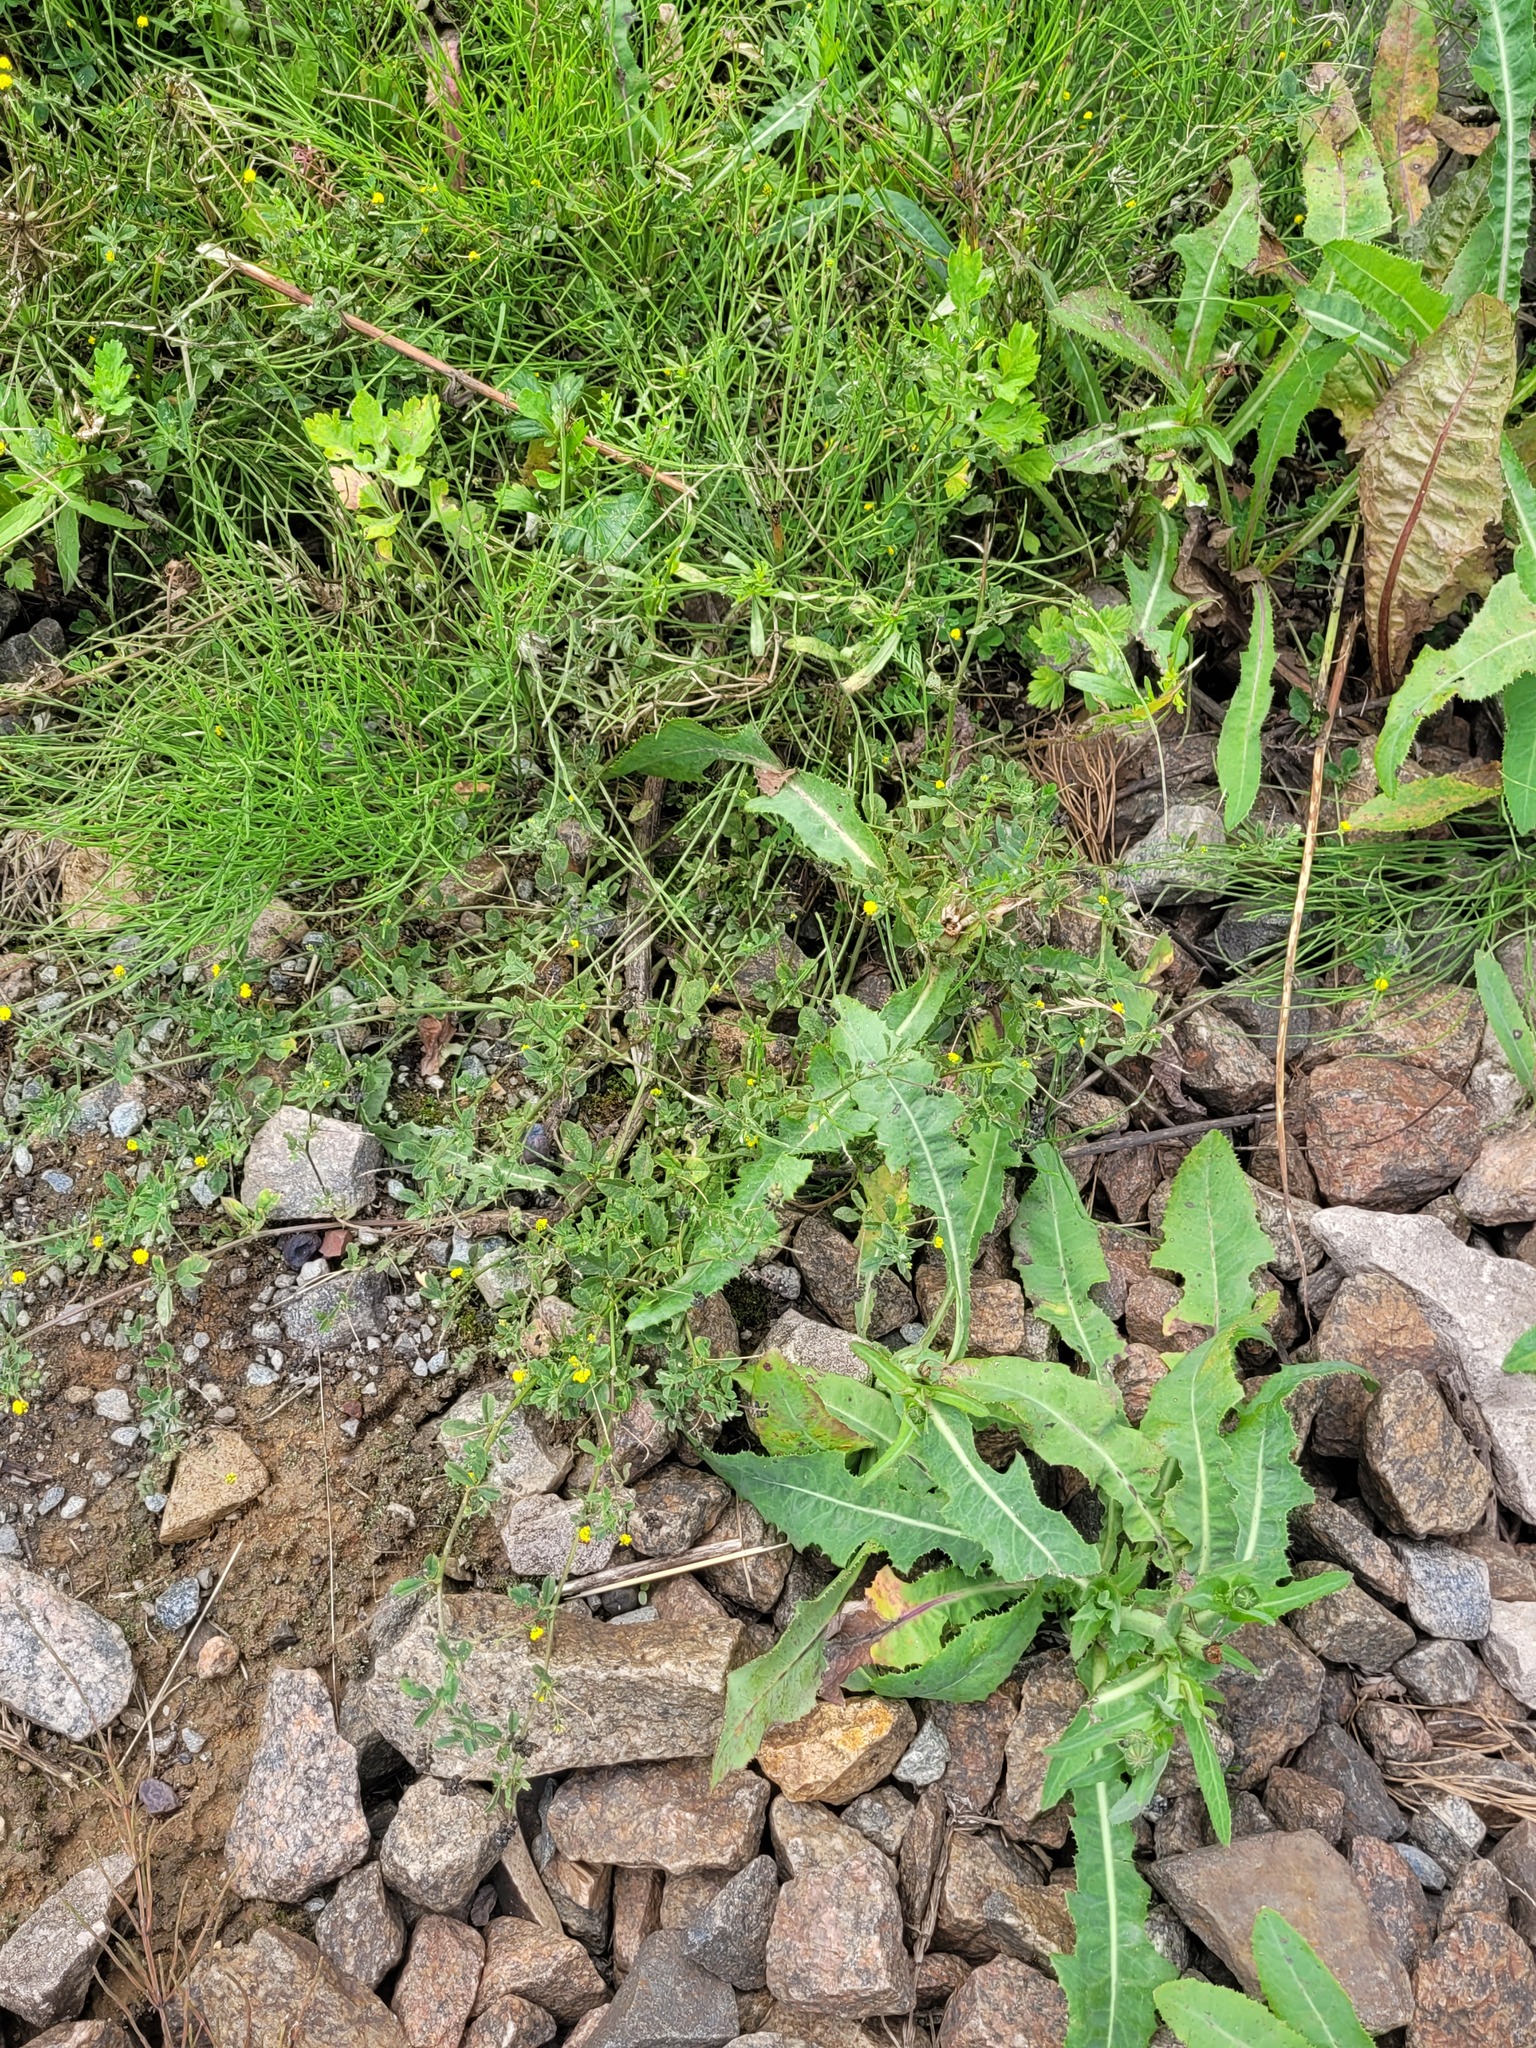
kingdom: Plantae
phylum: Tracheophyta
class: Magnoliopsida
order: Fabales
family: Fabaceae
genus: Medicago
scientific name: Medicago lupulina
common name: Black medick
